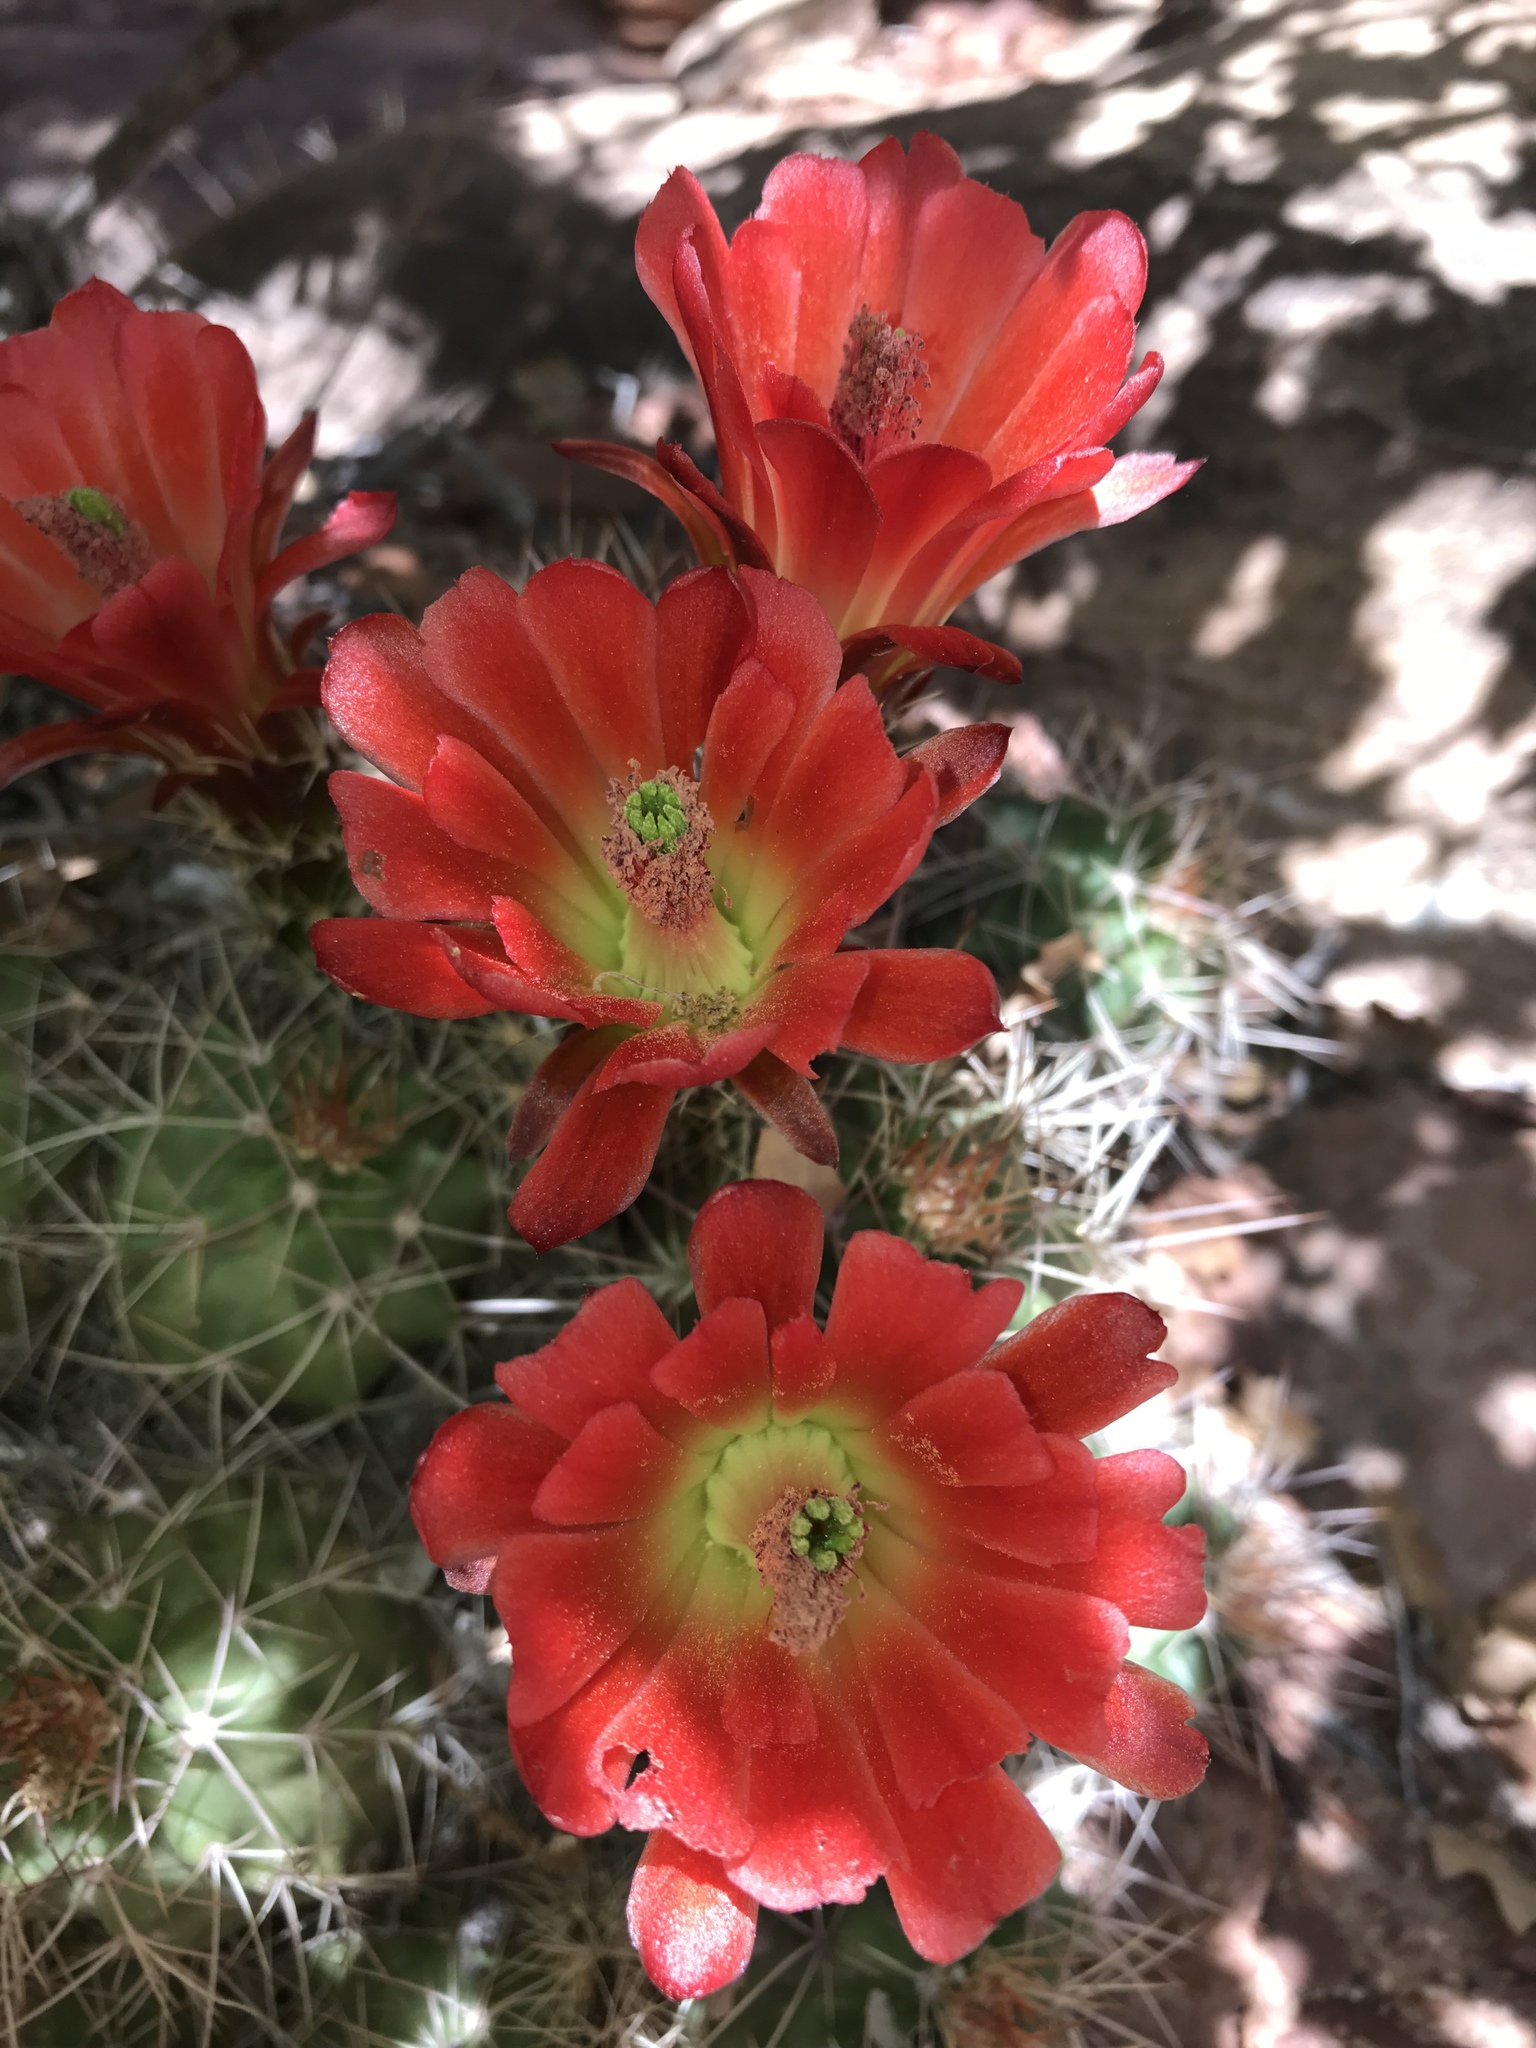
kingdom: Plantae
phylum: Tracheophyta
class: Magnoliopsida
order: Caryophyllales
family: Cactaceae
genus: Echinocereus
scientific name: Echinocereus triglochidiatus
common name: Claretcup hedgehog
